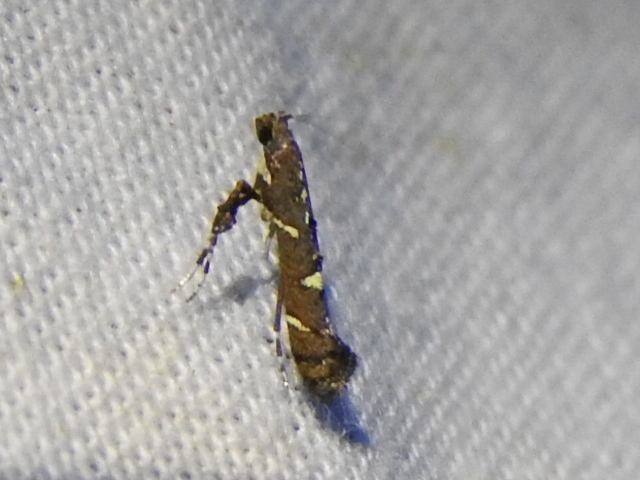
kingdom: Animalia
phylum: Arthropoda
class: Insecta
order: Lepidoptera
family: Gracillariidae
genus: Caloptilia
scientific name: Caloptilia triadicae
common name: Tallow leaf roller
